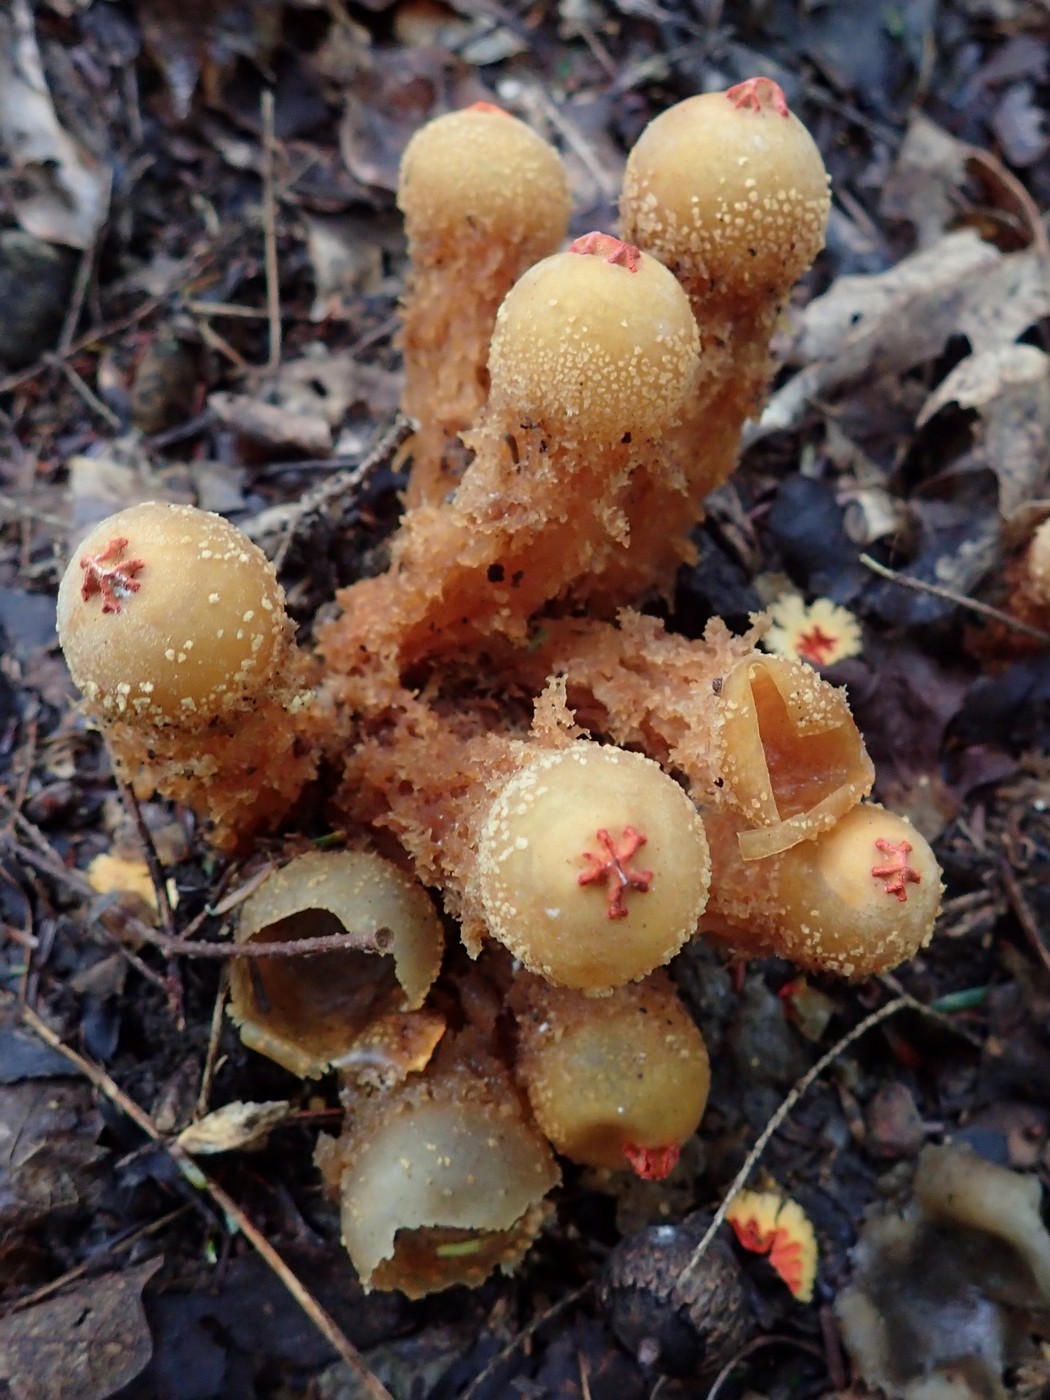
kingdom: Fungi
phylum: Basidiomycota
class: Agaricomycetes
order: Boletales
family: Calostomataceae
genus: Calostoma
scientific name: Calostoma ravenelii
